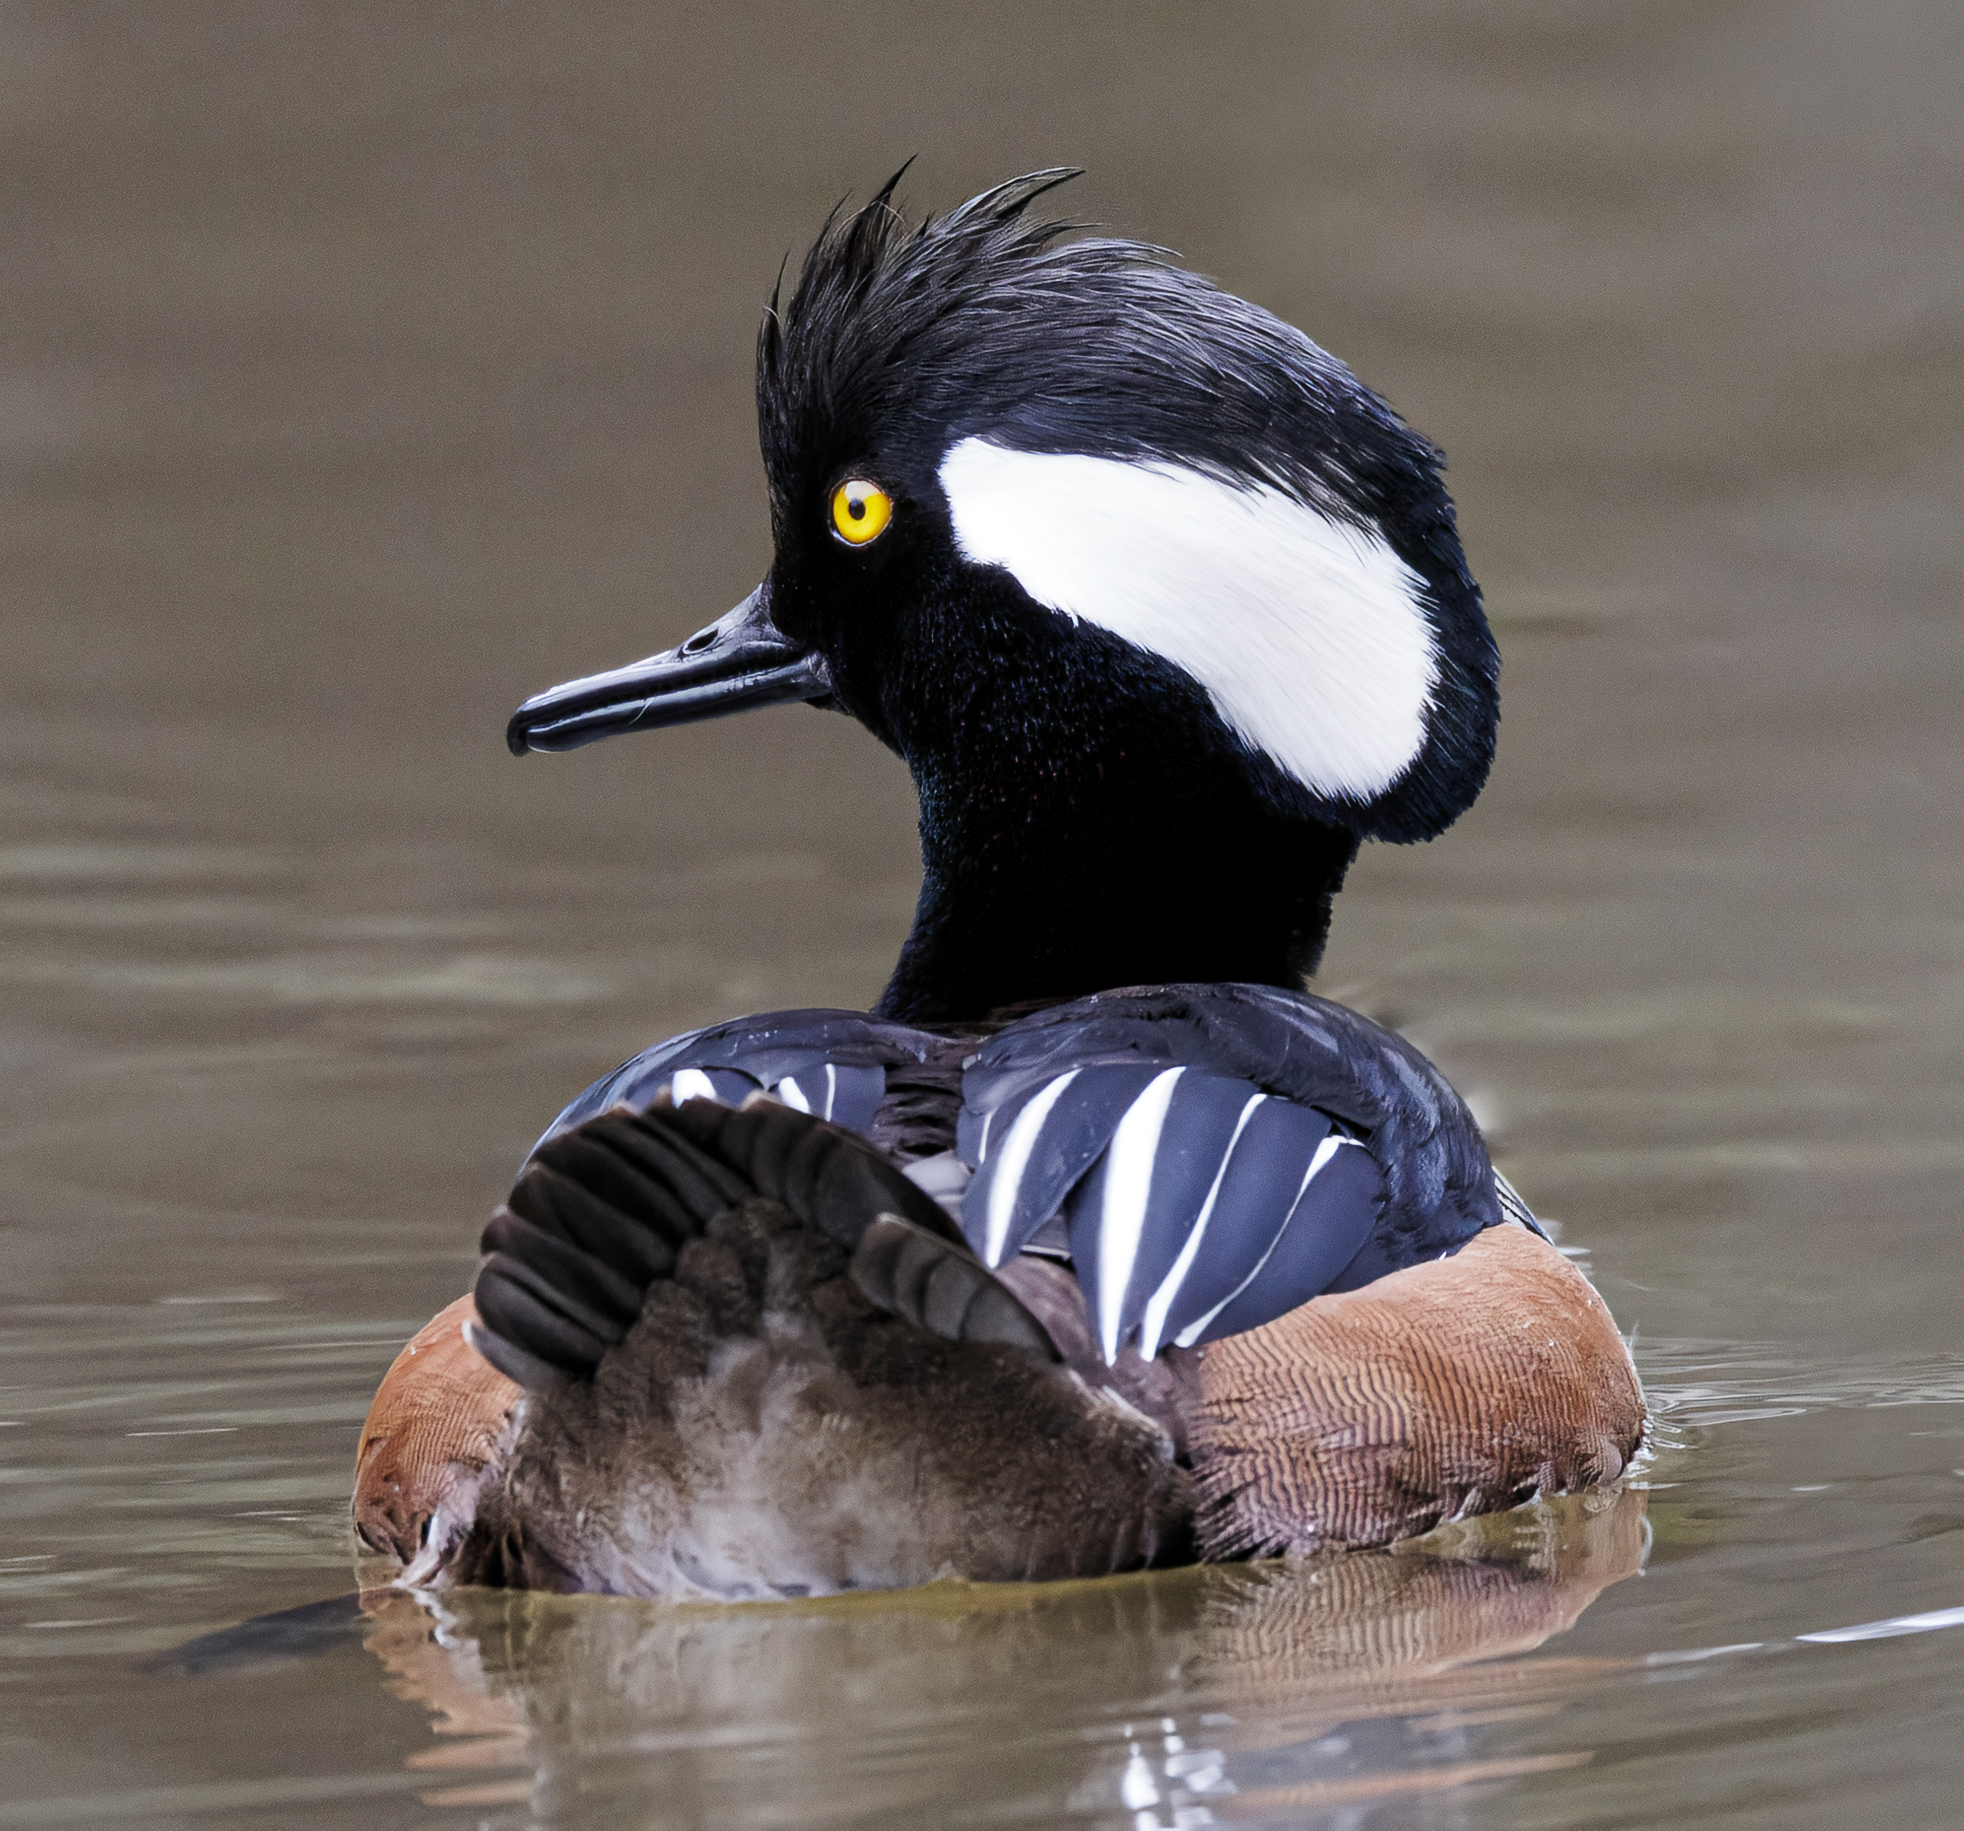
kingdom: Animalia
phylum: Chordata
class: Aves
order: Anseriformes
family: Anatidae
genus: Lophodytes
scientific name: Lophodytes cucullatus
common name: Hooded merganser
